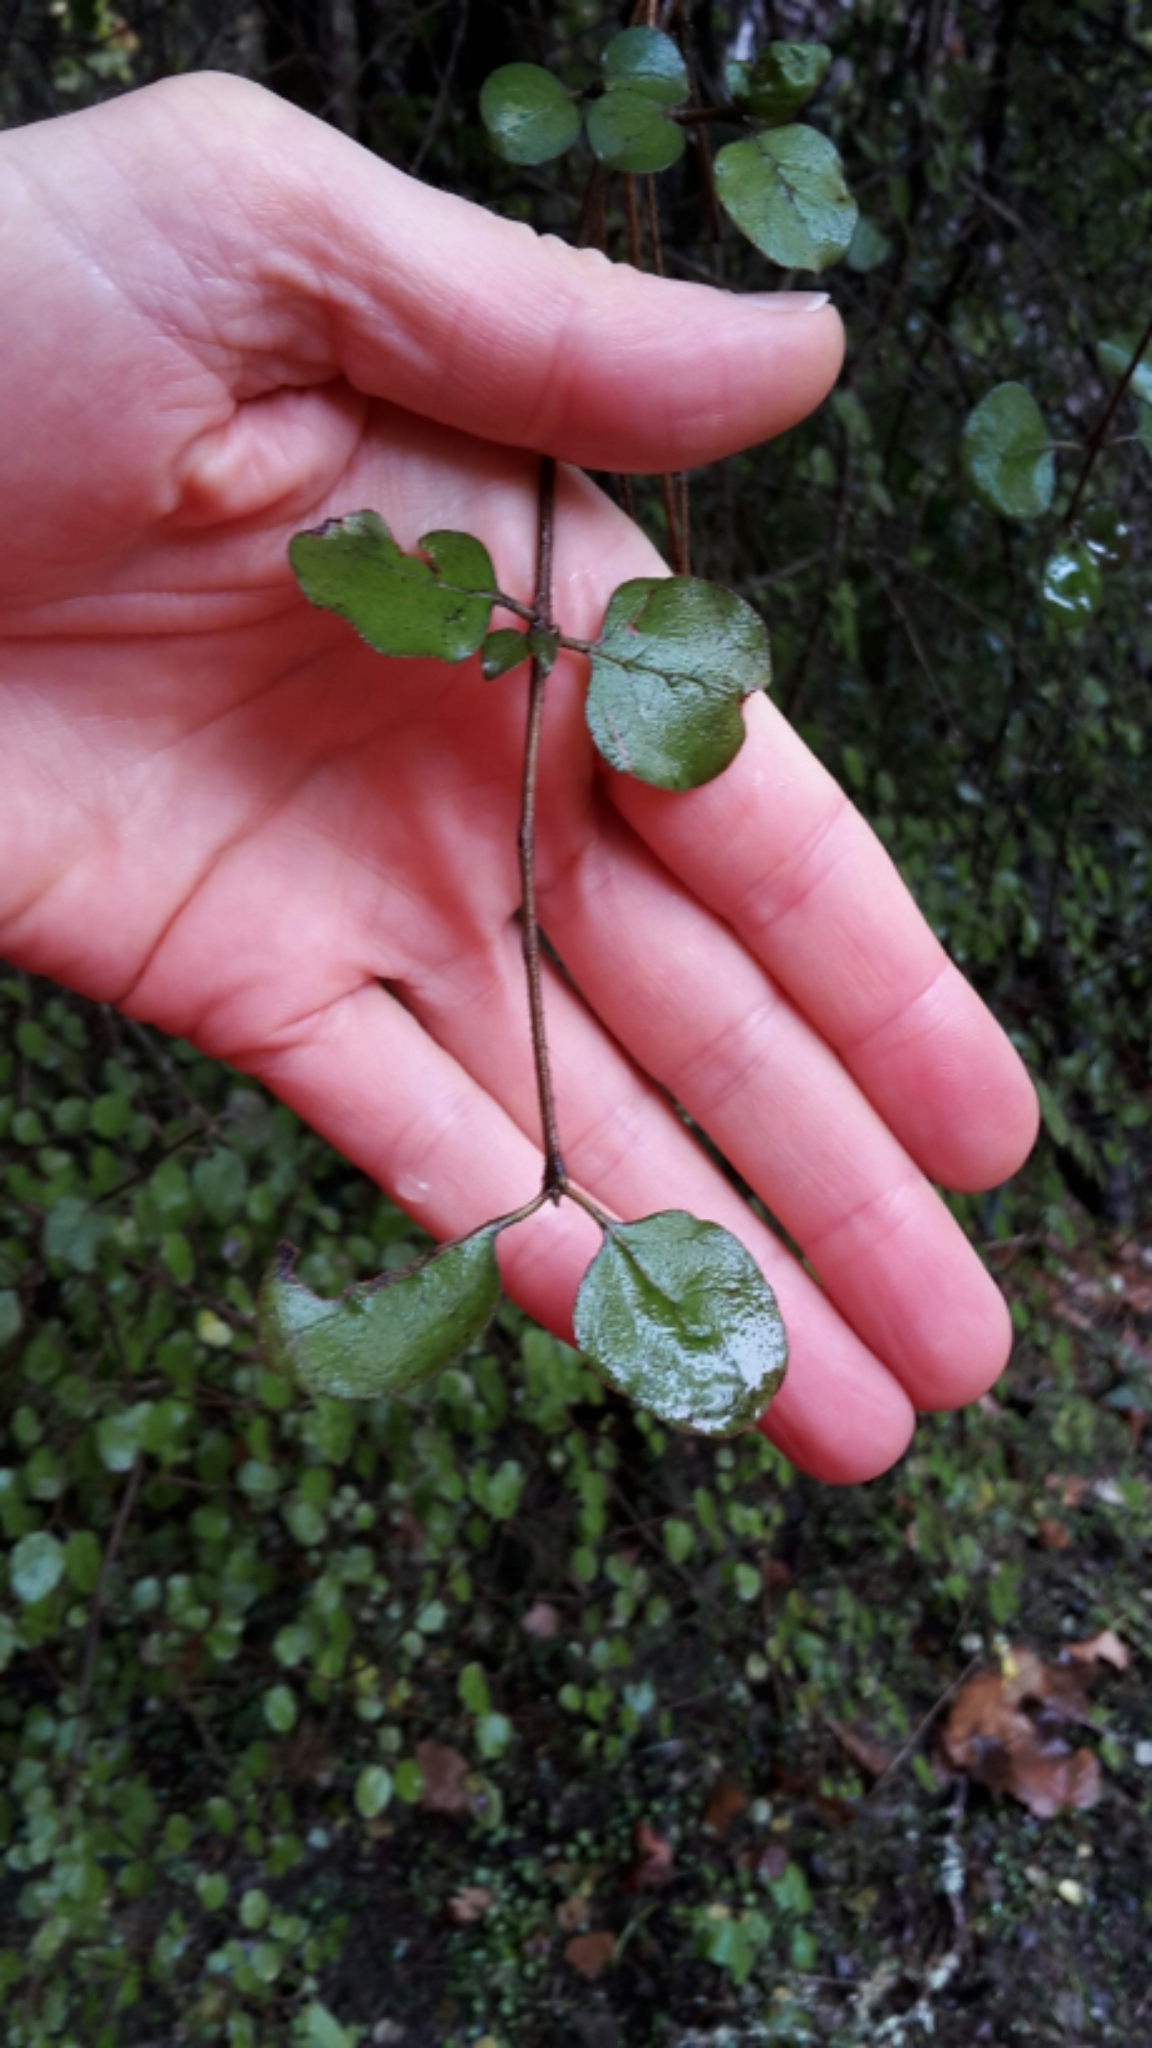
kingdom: Plantae
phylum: Tracheophyta
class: Magnoliopsida
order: Gentianales
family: Rubiaceae
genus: Coprosma
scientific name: Coprosma rotundifolia
